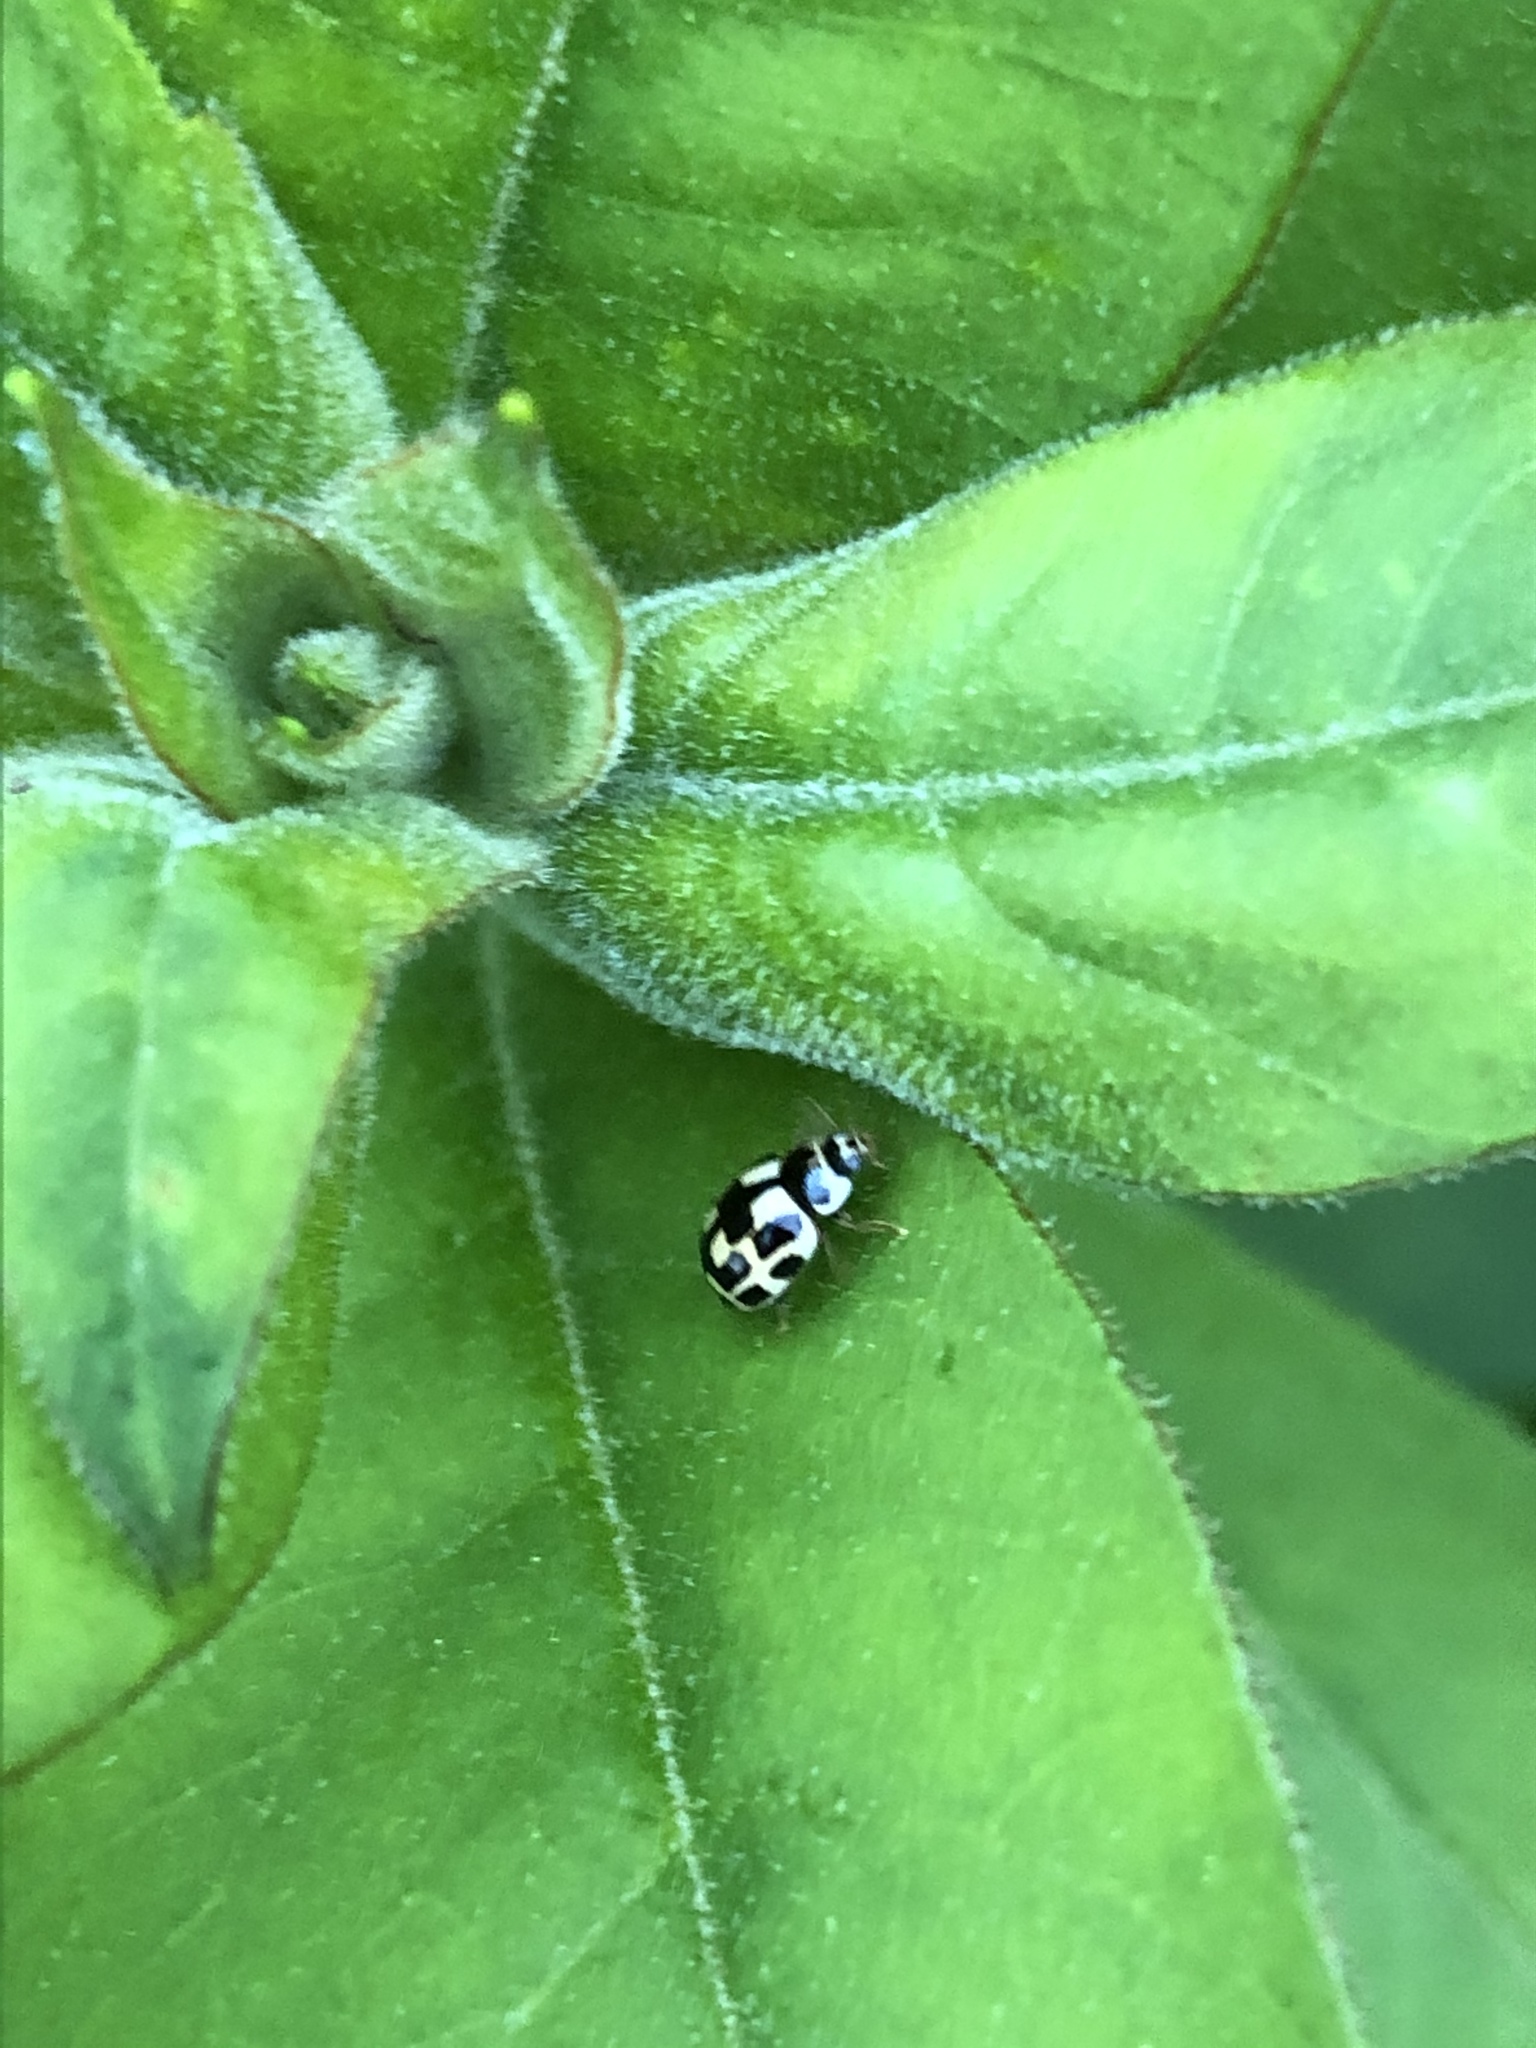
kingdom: Animalia
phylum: Arthropoda
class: Insecta
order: Coleoptera
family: Coccinellidae
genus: Propylaea
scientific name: Propylaea quatuordecimpunctata
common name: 14-spotted ladybird beetle
